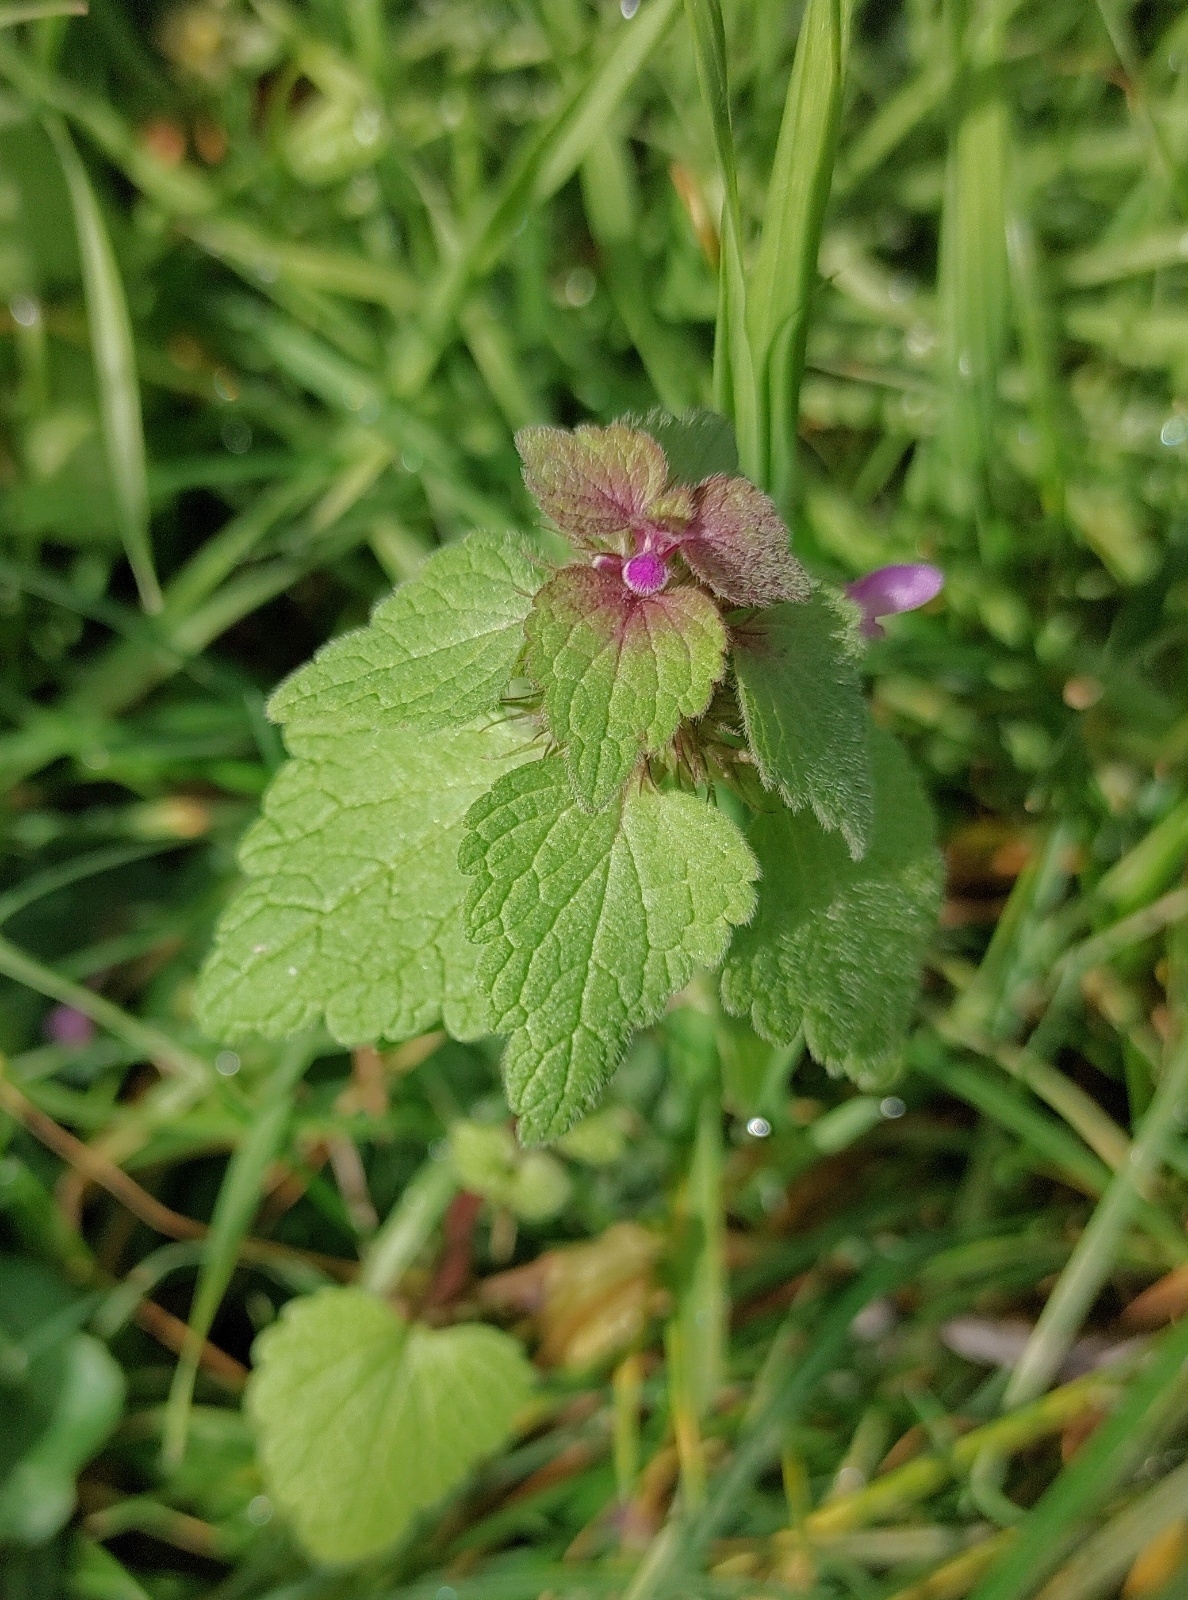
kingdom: Plantae
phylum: Tracheophyta
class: Magnoliopsida
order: Lamiales
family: Lamiaceae
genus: Lamium
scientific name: Lamium purpureum
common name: Red dead-nettle
